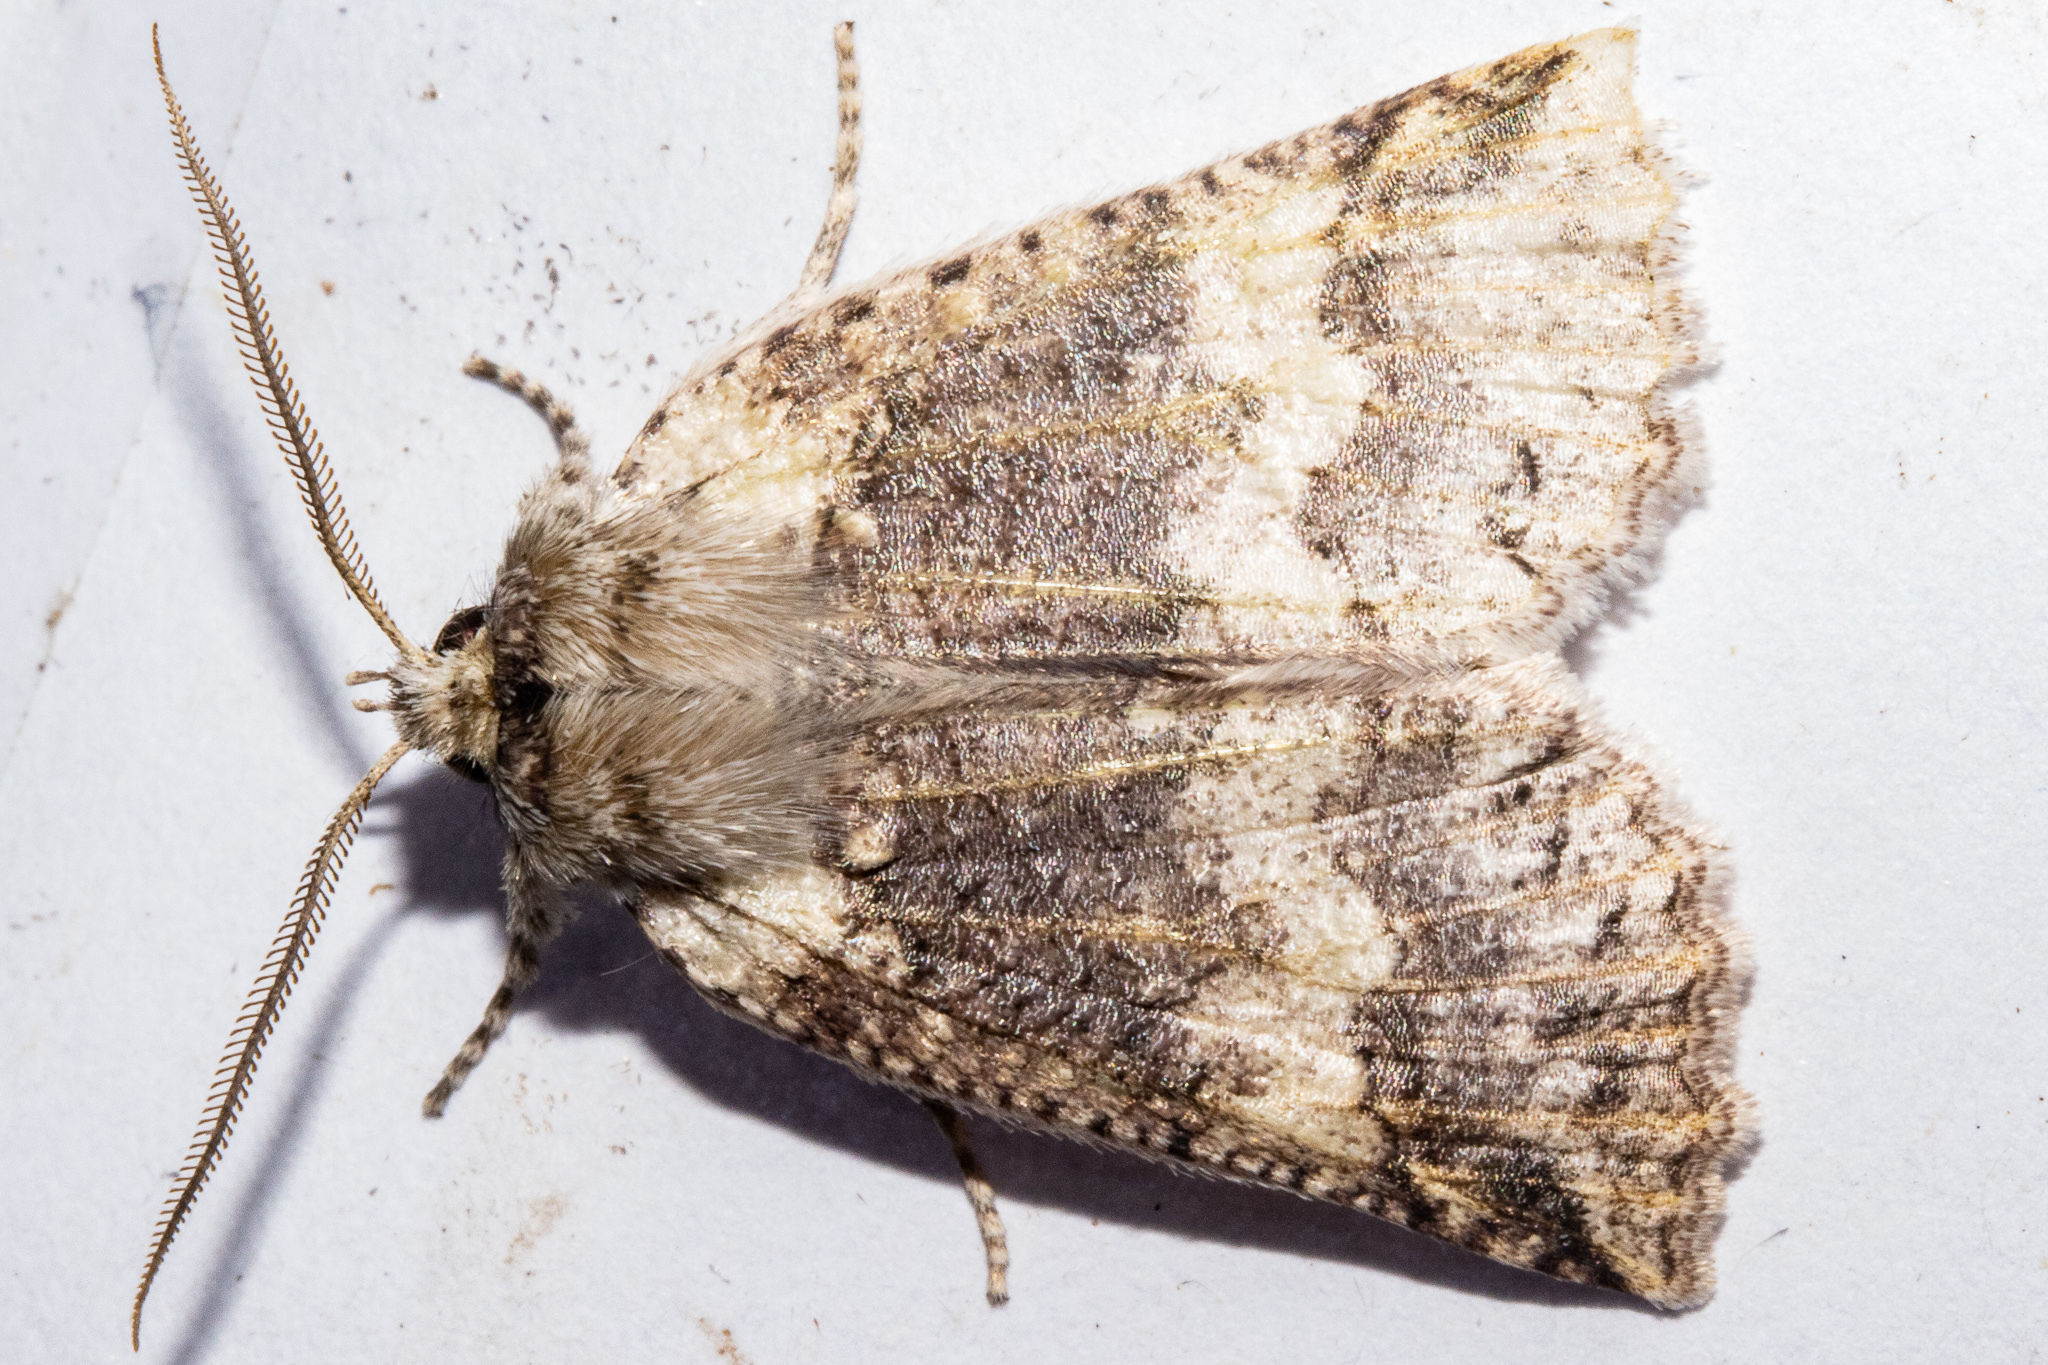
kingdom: Animalia
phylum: Arthropoda
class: Insecta
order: Lepidoptera
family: Geometridae
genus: Declana
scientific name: Declana floccosa
